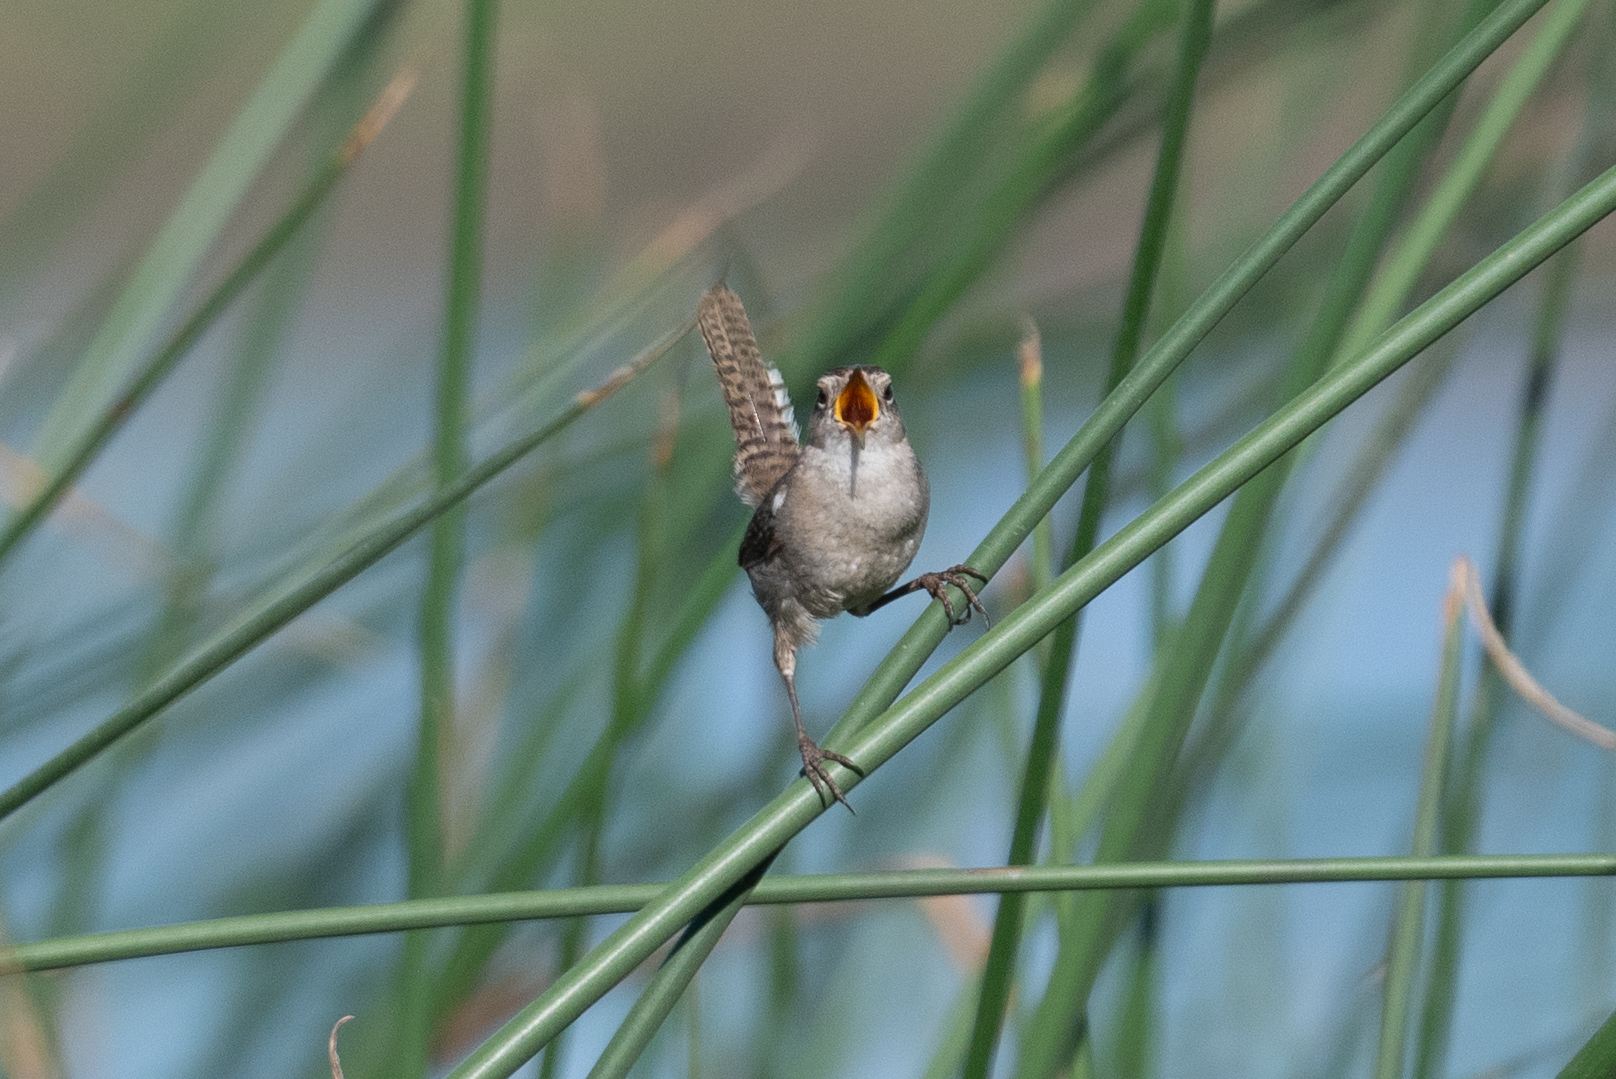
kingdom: Animalia
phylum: Chordata
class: Aves
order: Passeriformes
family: Troglodytidae
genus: Cistothorus
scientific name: Cistothorus palustris
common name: Marsh wren
